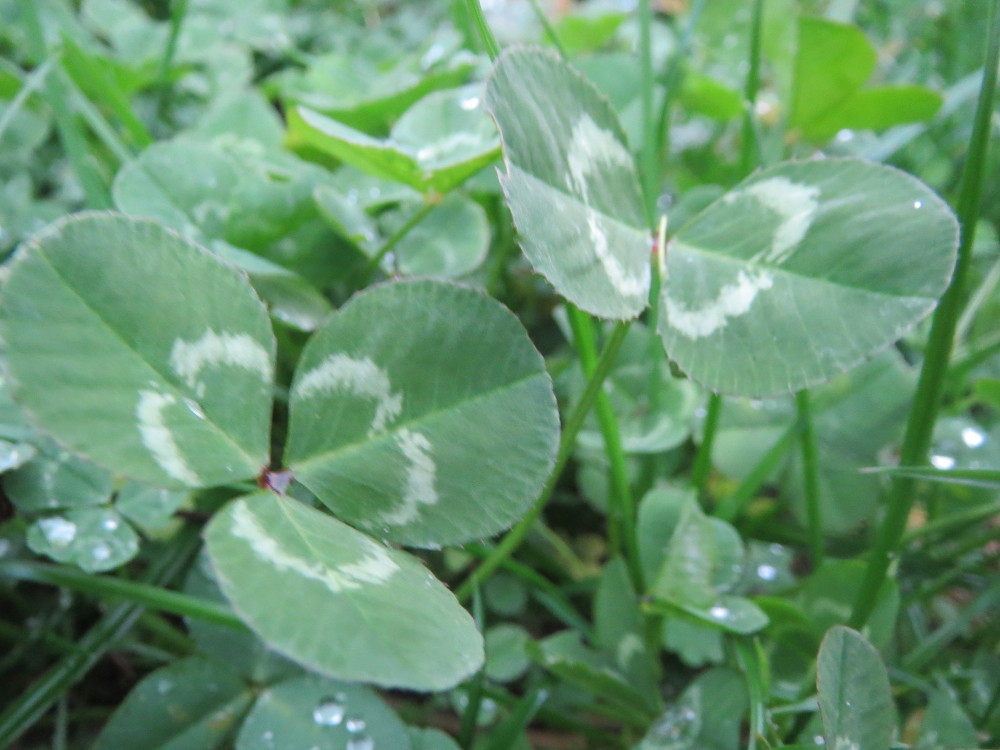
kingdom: Plantae
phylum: Tracheophyta
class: Magnoliopsida
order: Fabales
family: Fabaceae
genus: Trifolium
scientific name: Trifolium repens
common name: White clover
